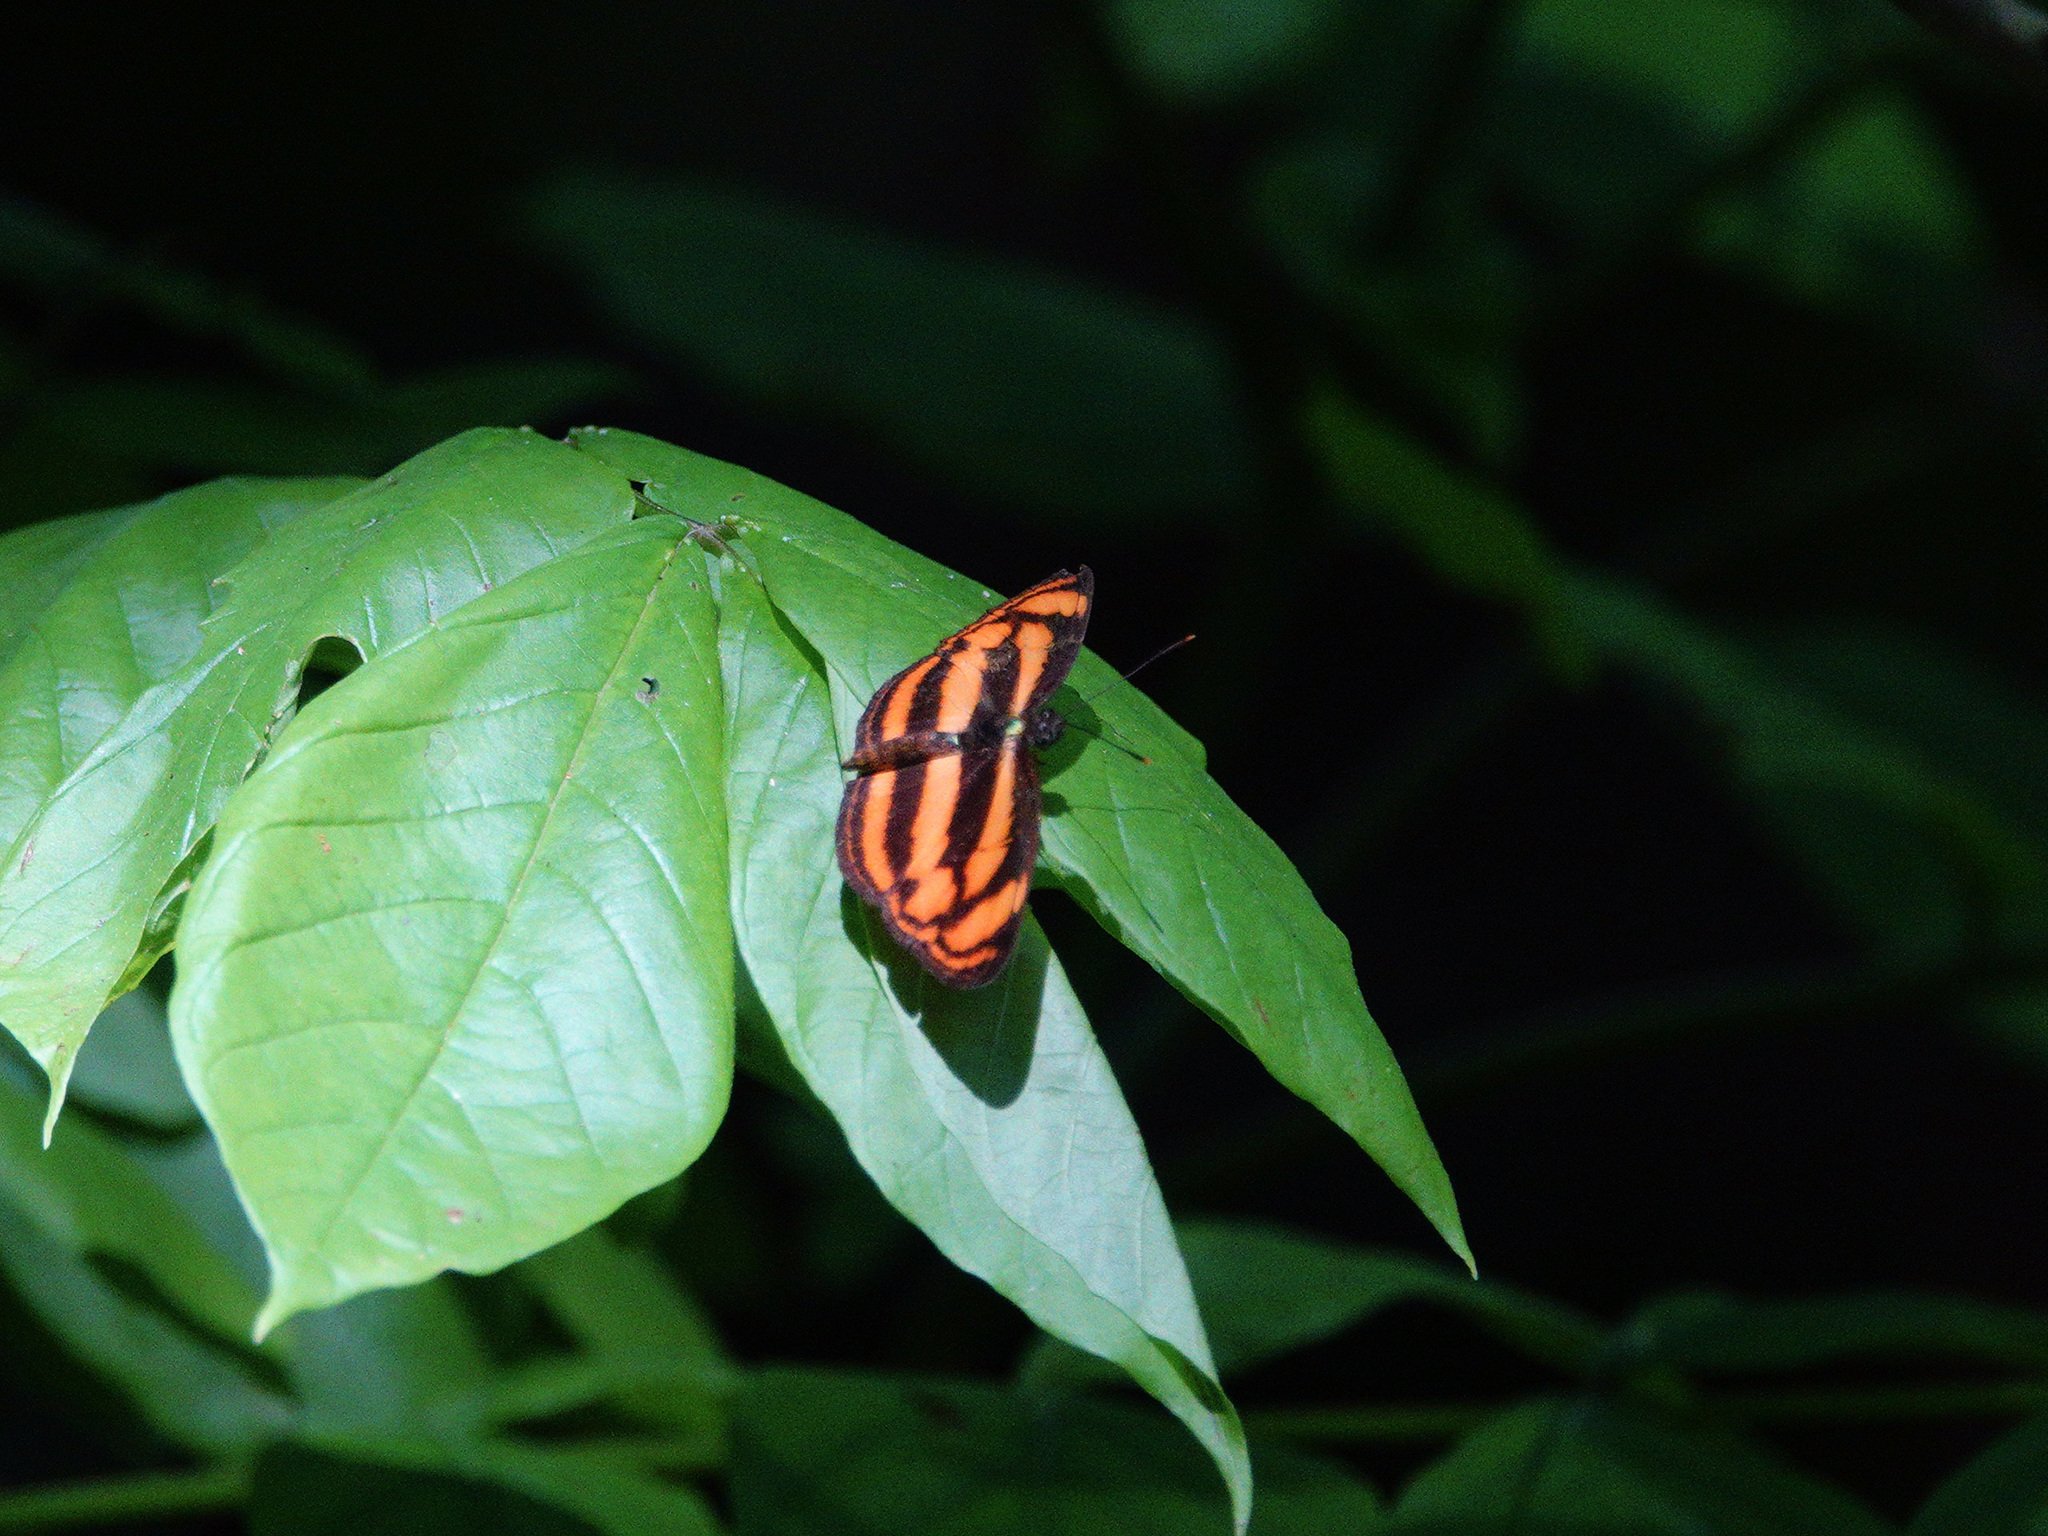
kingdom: Animalia
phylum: Arthropoda
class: Insecta
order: Lepidoptera
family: Nymphalidae
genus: Lasippa
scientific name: Lasippa tiga
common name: Malayan lascar
